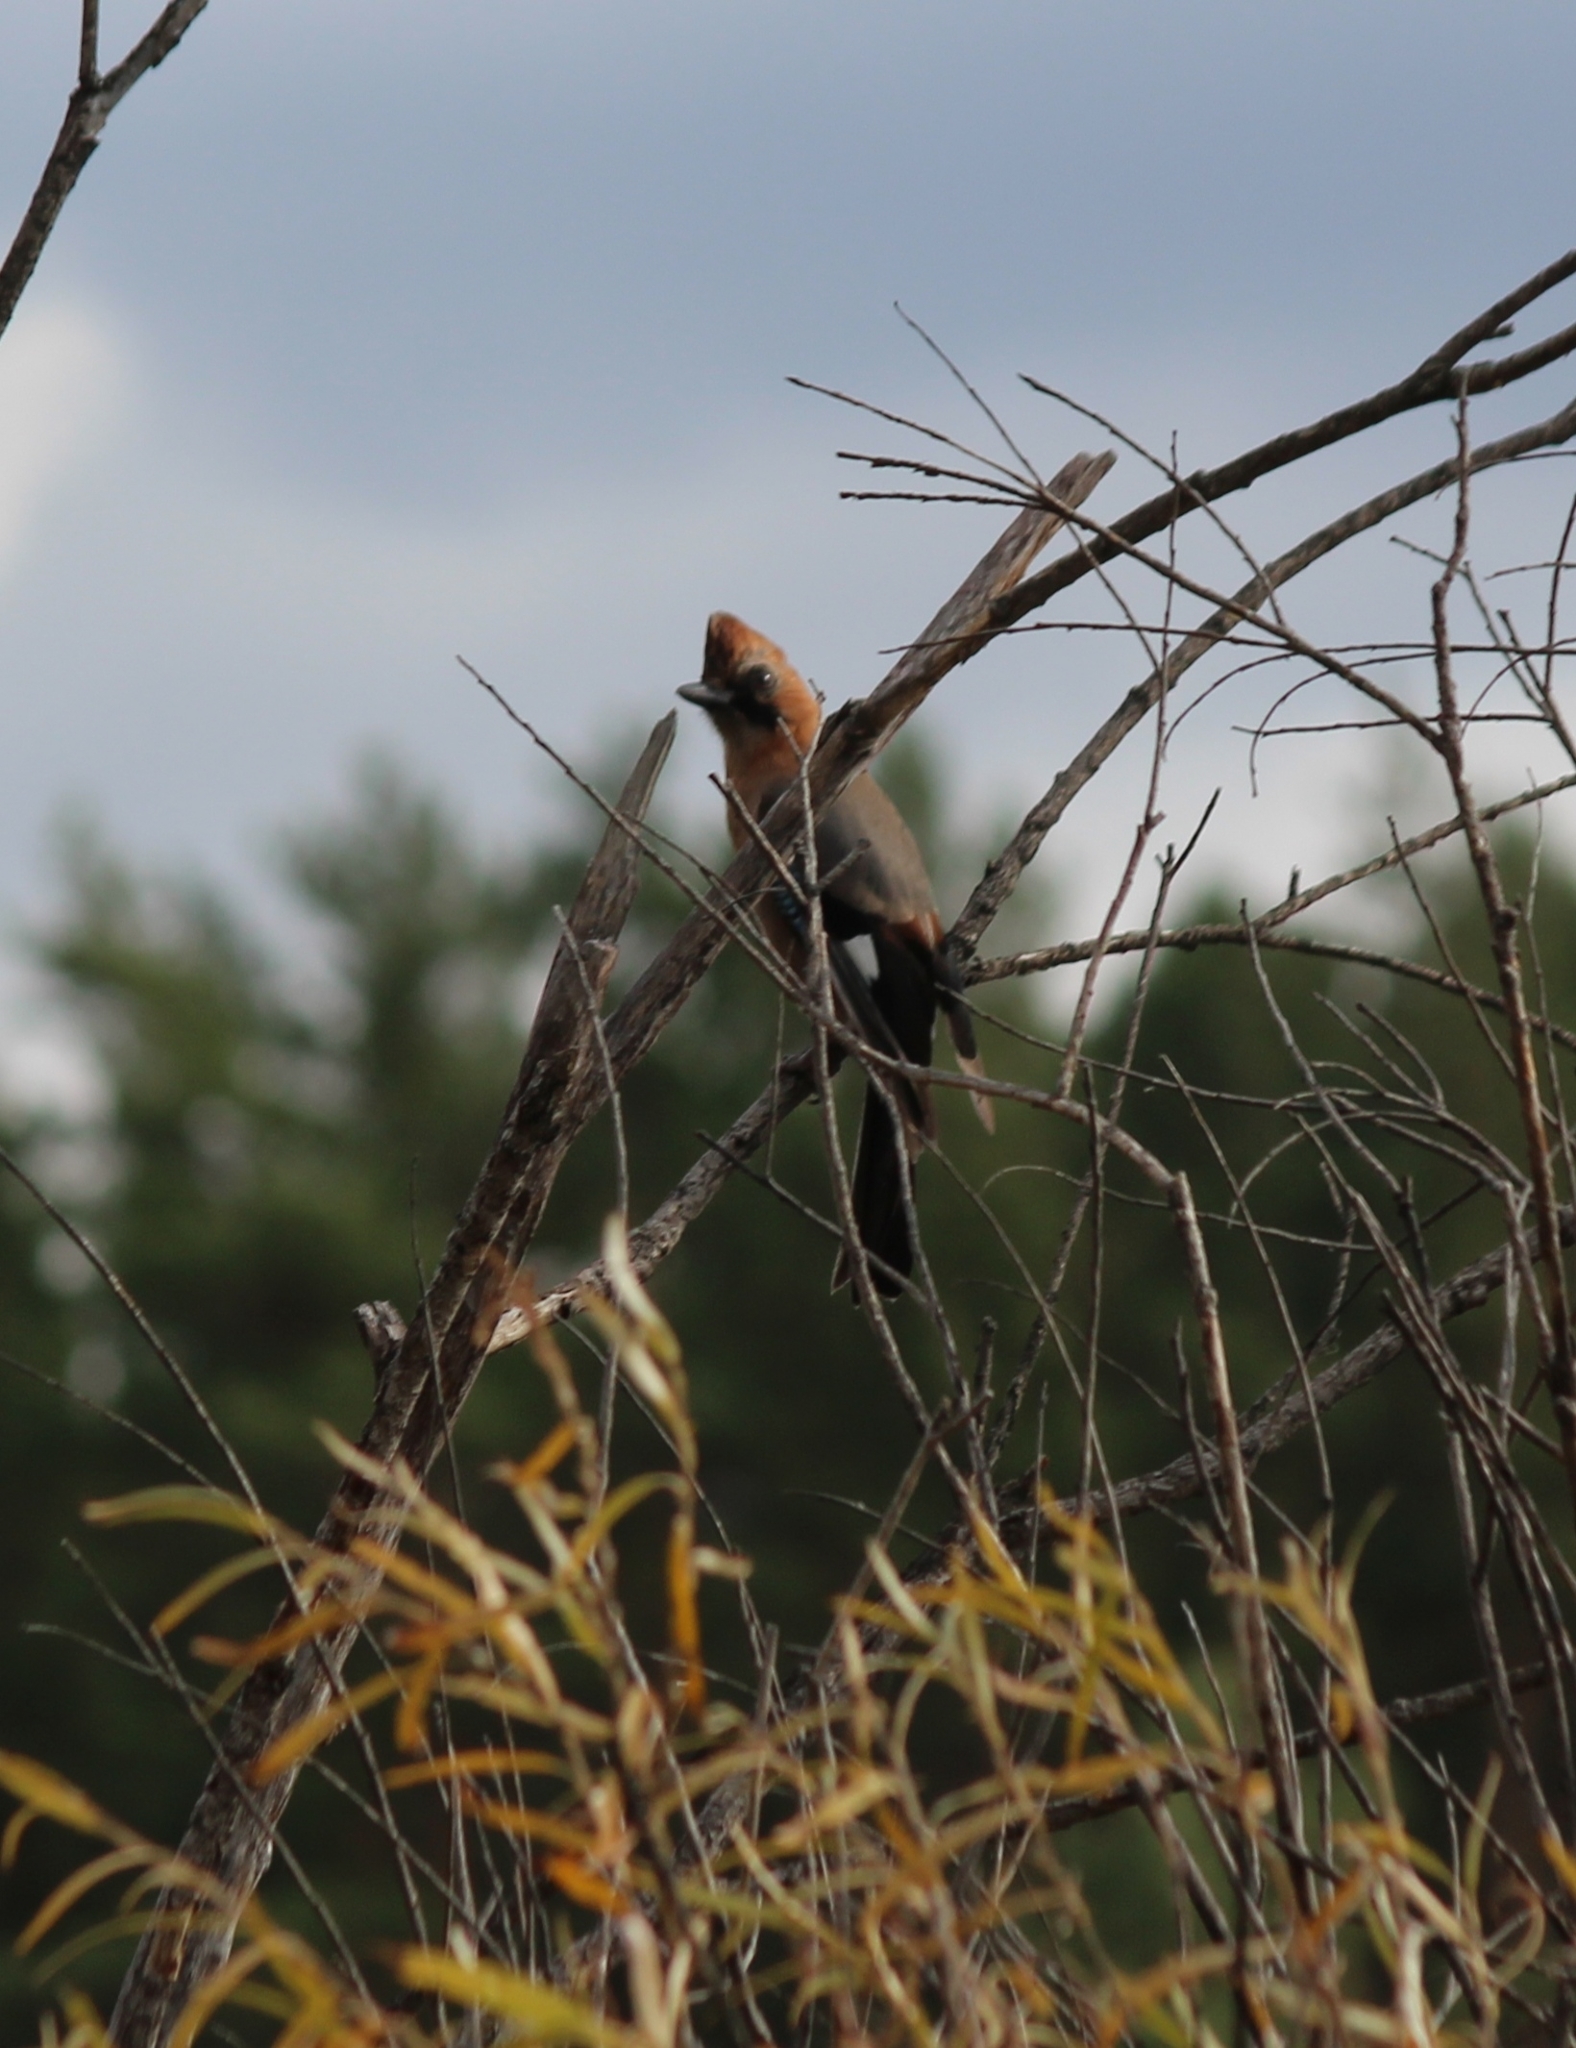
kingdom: Animalia
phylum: Chordata
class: Aves
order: Passeriformes
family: Corvidae
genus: Garrulus
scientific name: Garrulus glandarius
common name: Eurasian jay
